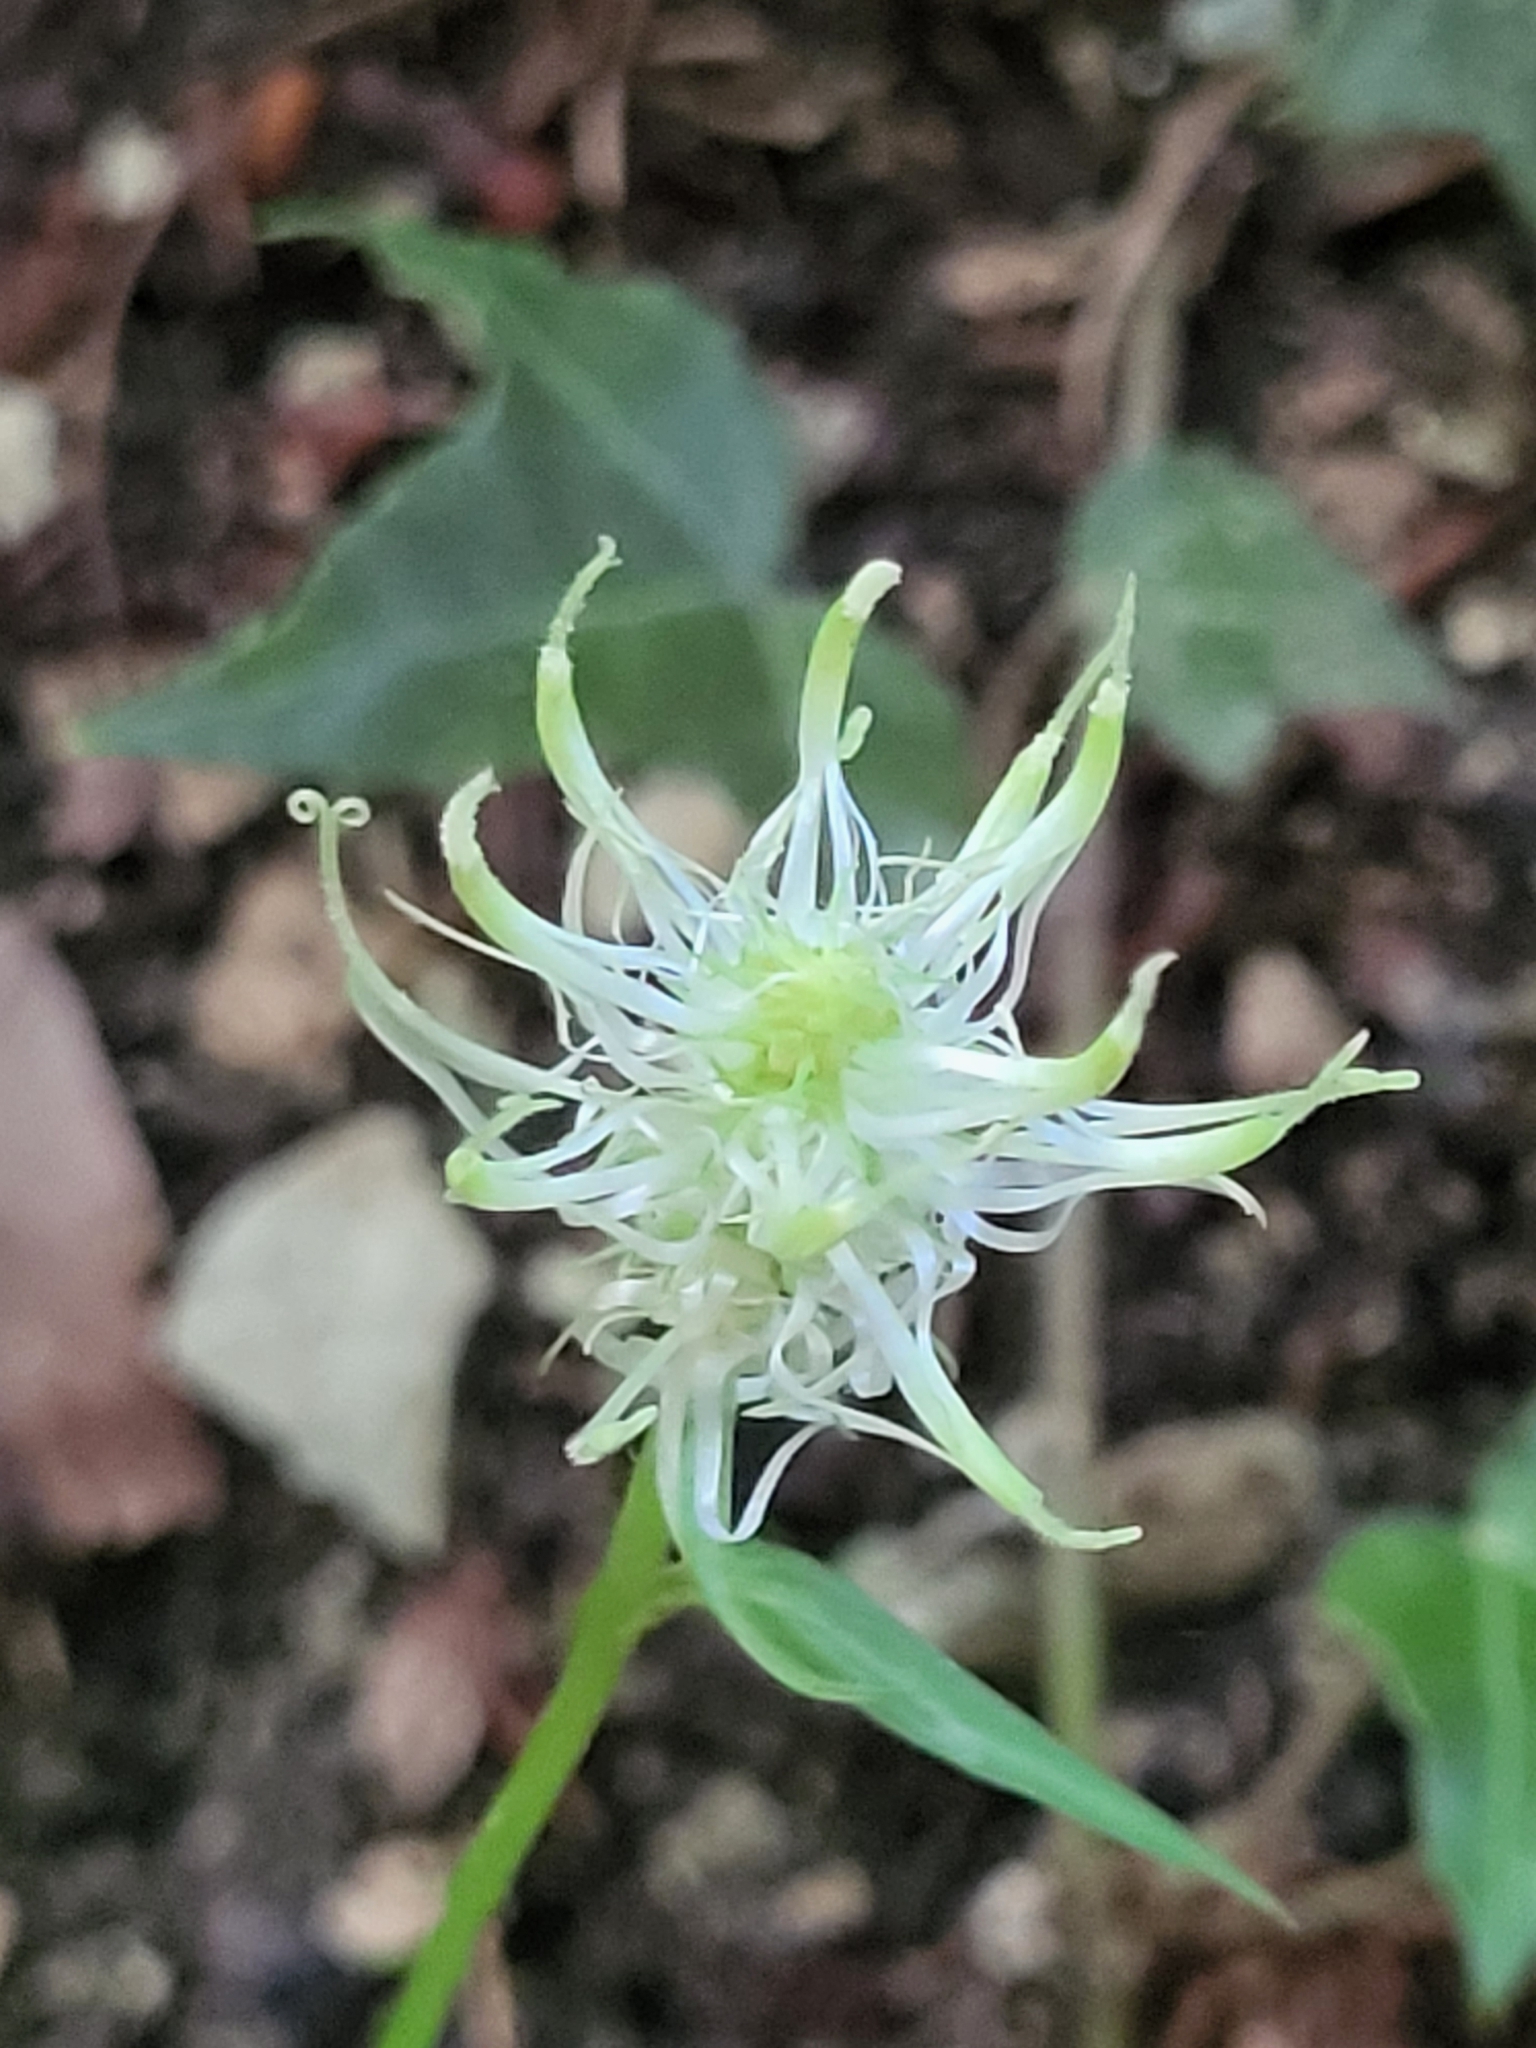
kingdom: Plantae
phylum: Tracheophyta
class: Magnoliopsida
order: Asterales
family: Campanulaceae
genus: Phyteuma
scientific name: Phyteuma spicatum
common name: Spiked rampion
